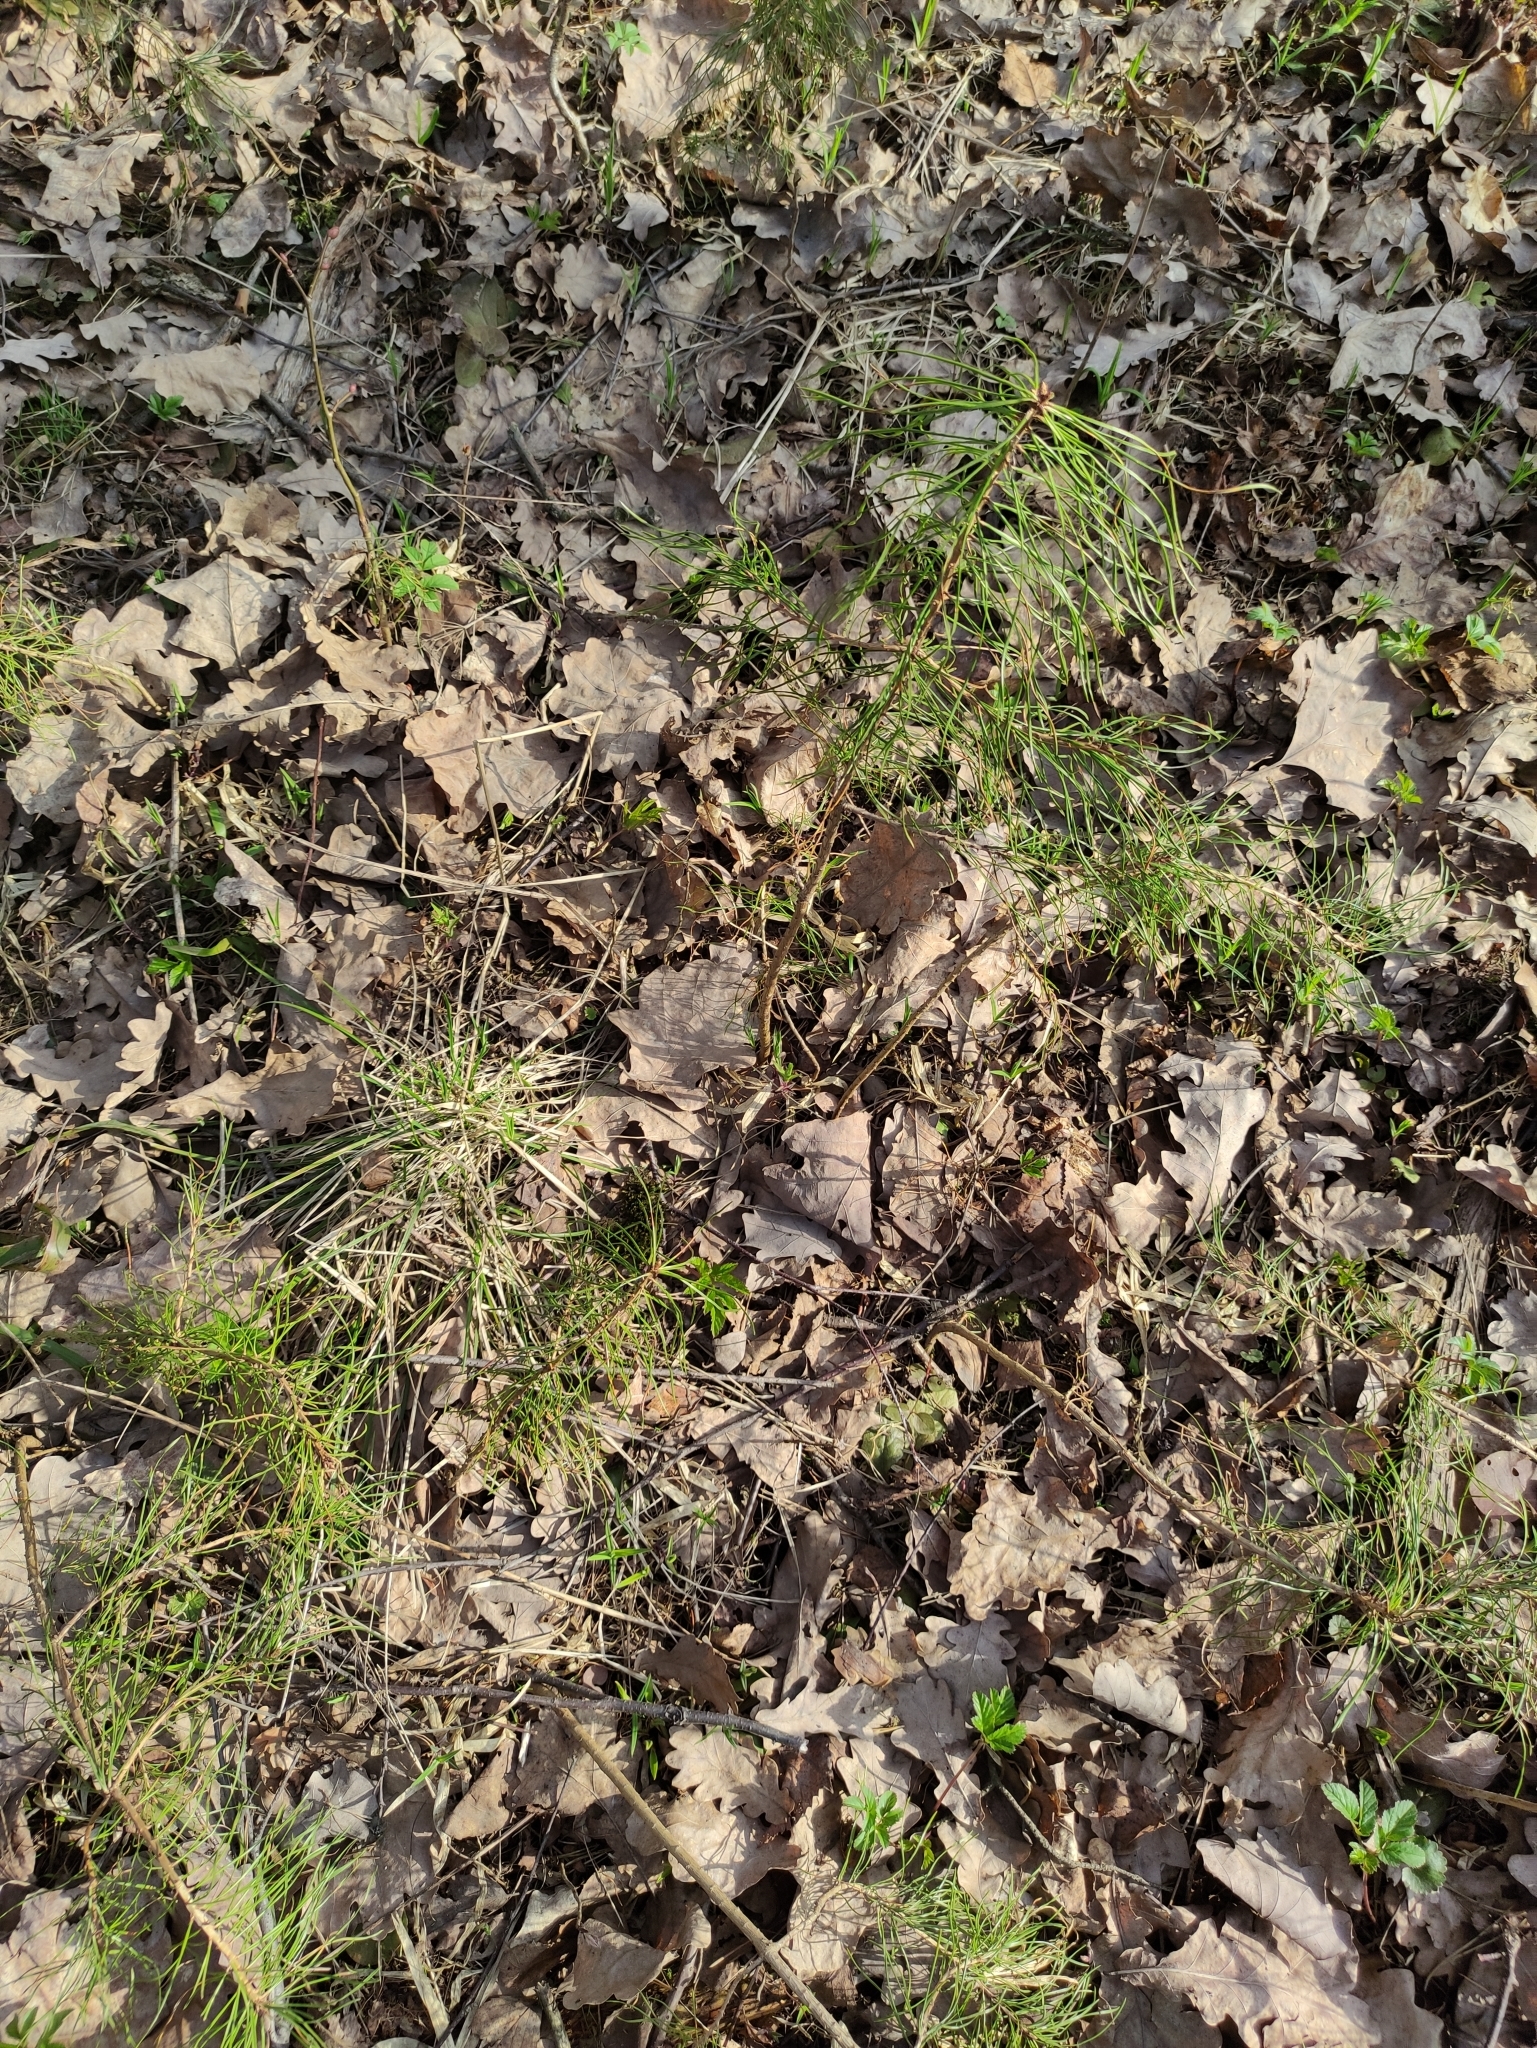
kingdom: Plantae
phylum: Tracheophyta
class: Pinopsida
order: Pinales
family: Pinaceae
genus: Pinus
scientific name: Pinus sylvestris
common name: Scots pine
